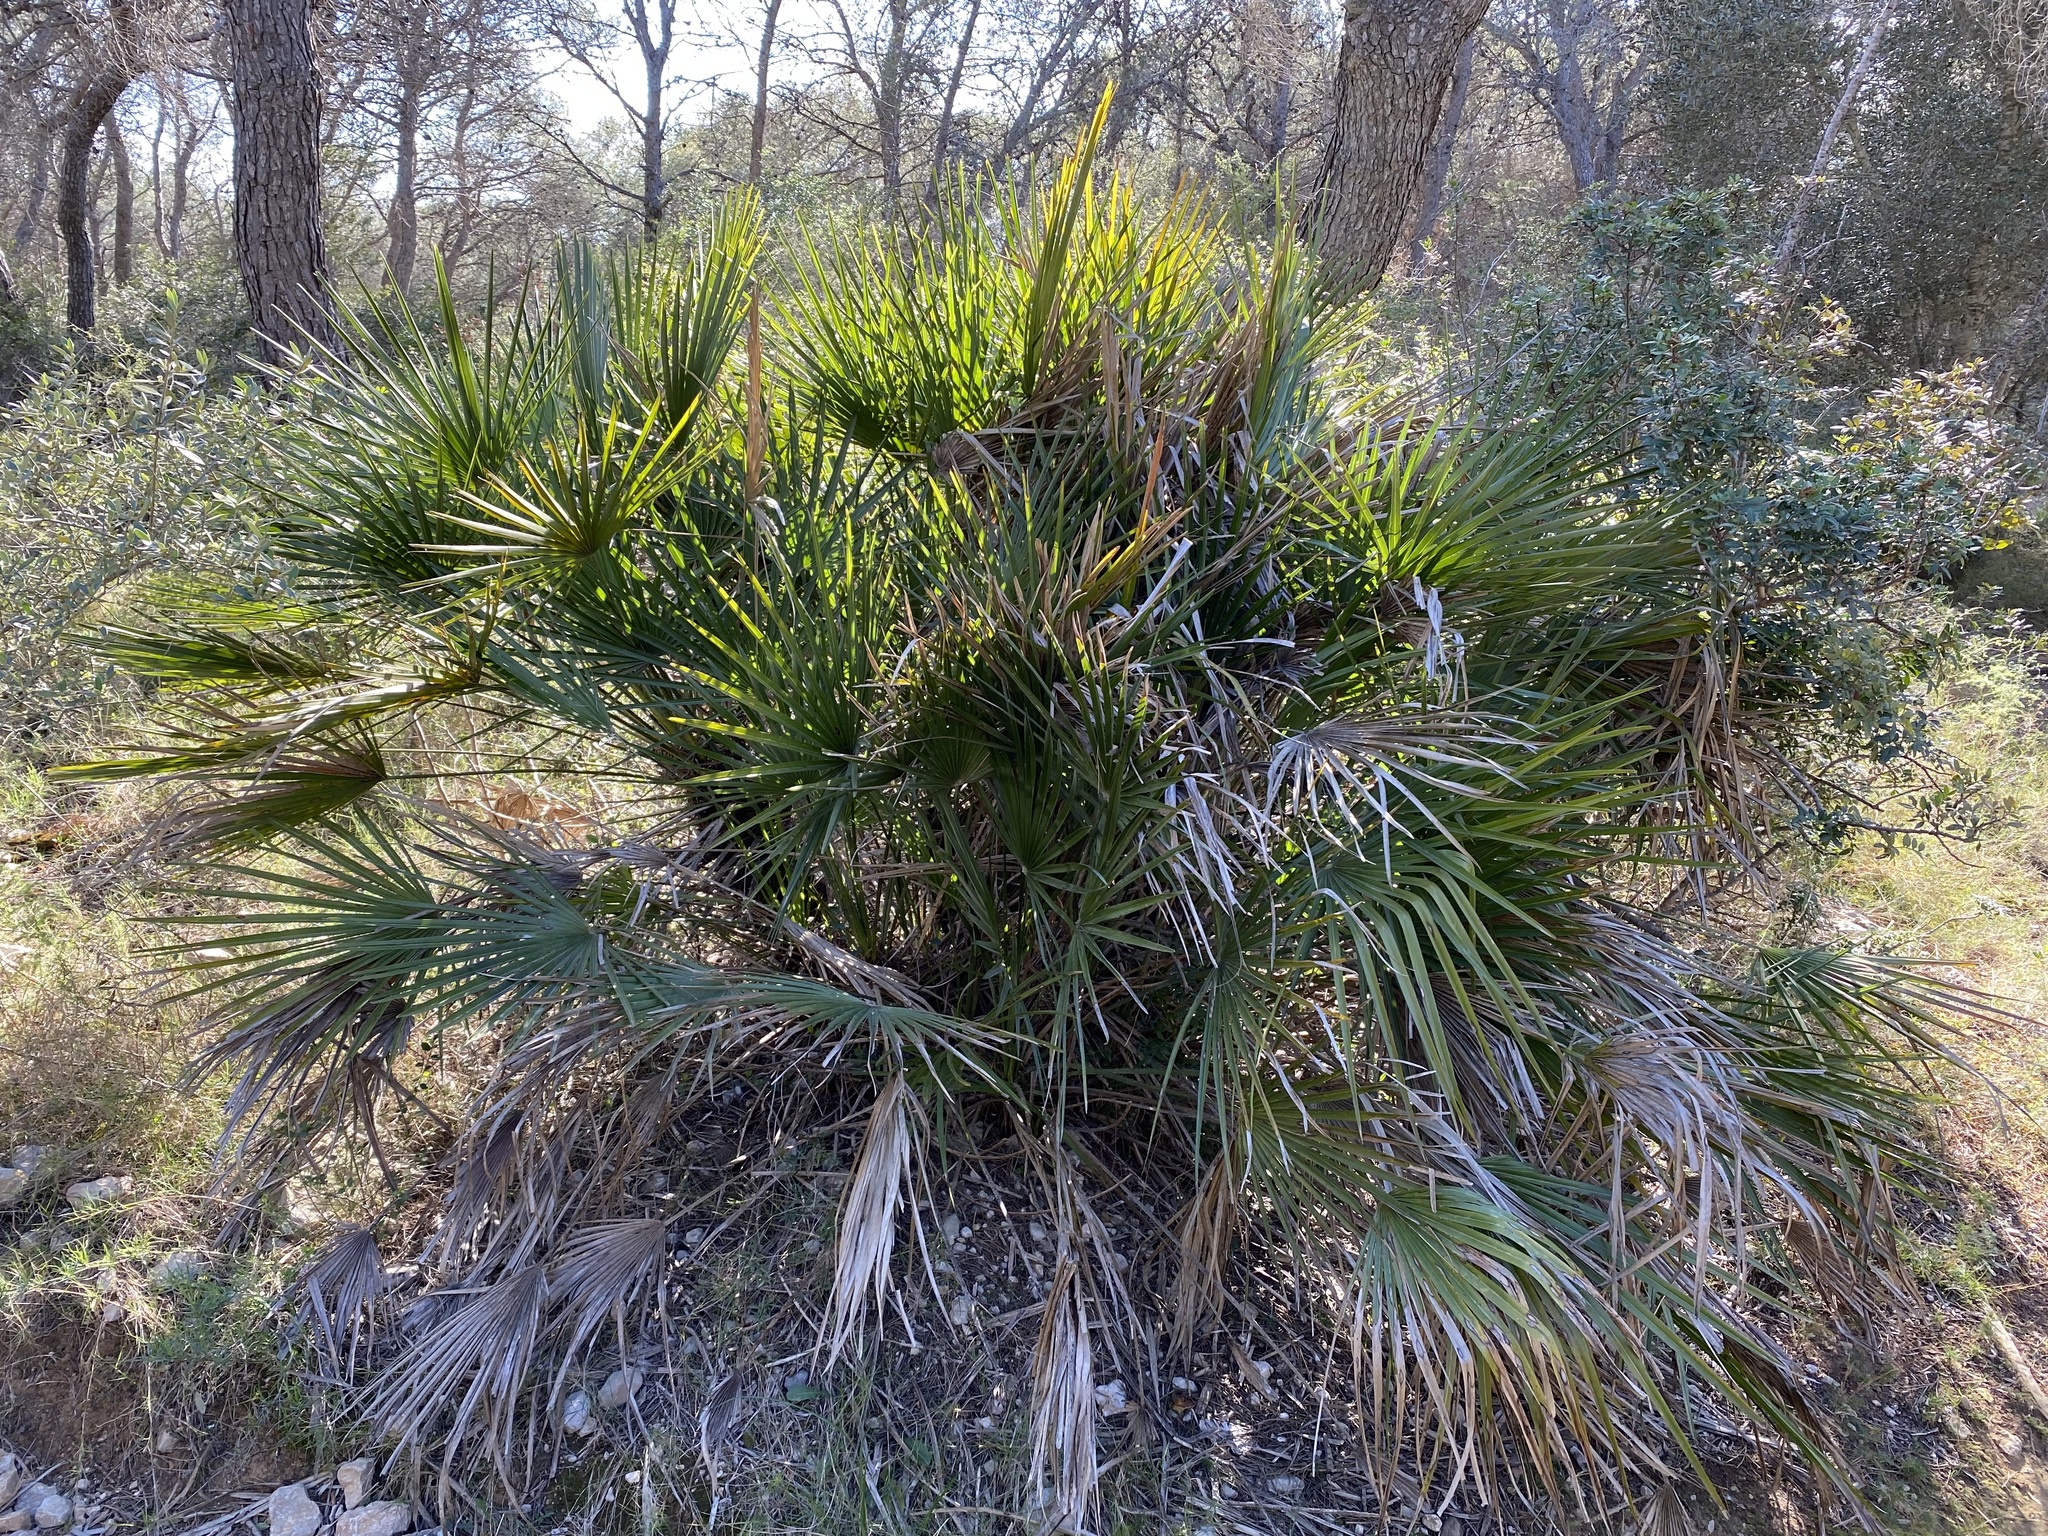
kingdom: Plantae
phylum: Tracheophyta
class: Liliopsida
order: Arecales
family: Arecaceae
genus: Chamaerops
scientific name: Chamaerops humilis
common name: Dwarf fan palm
